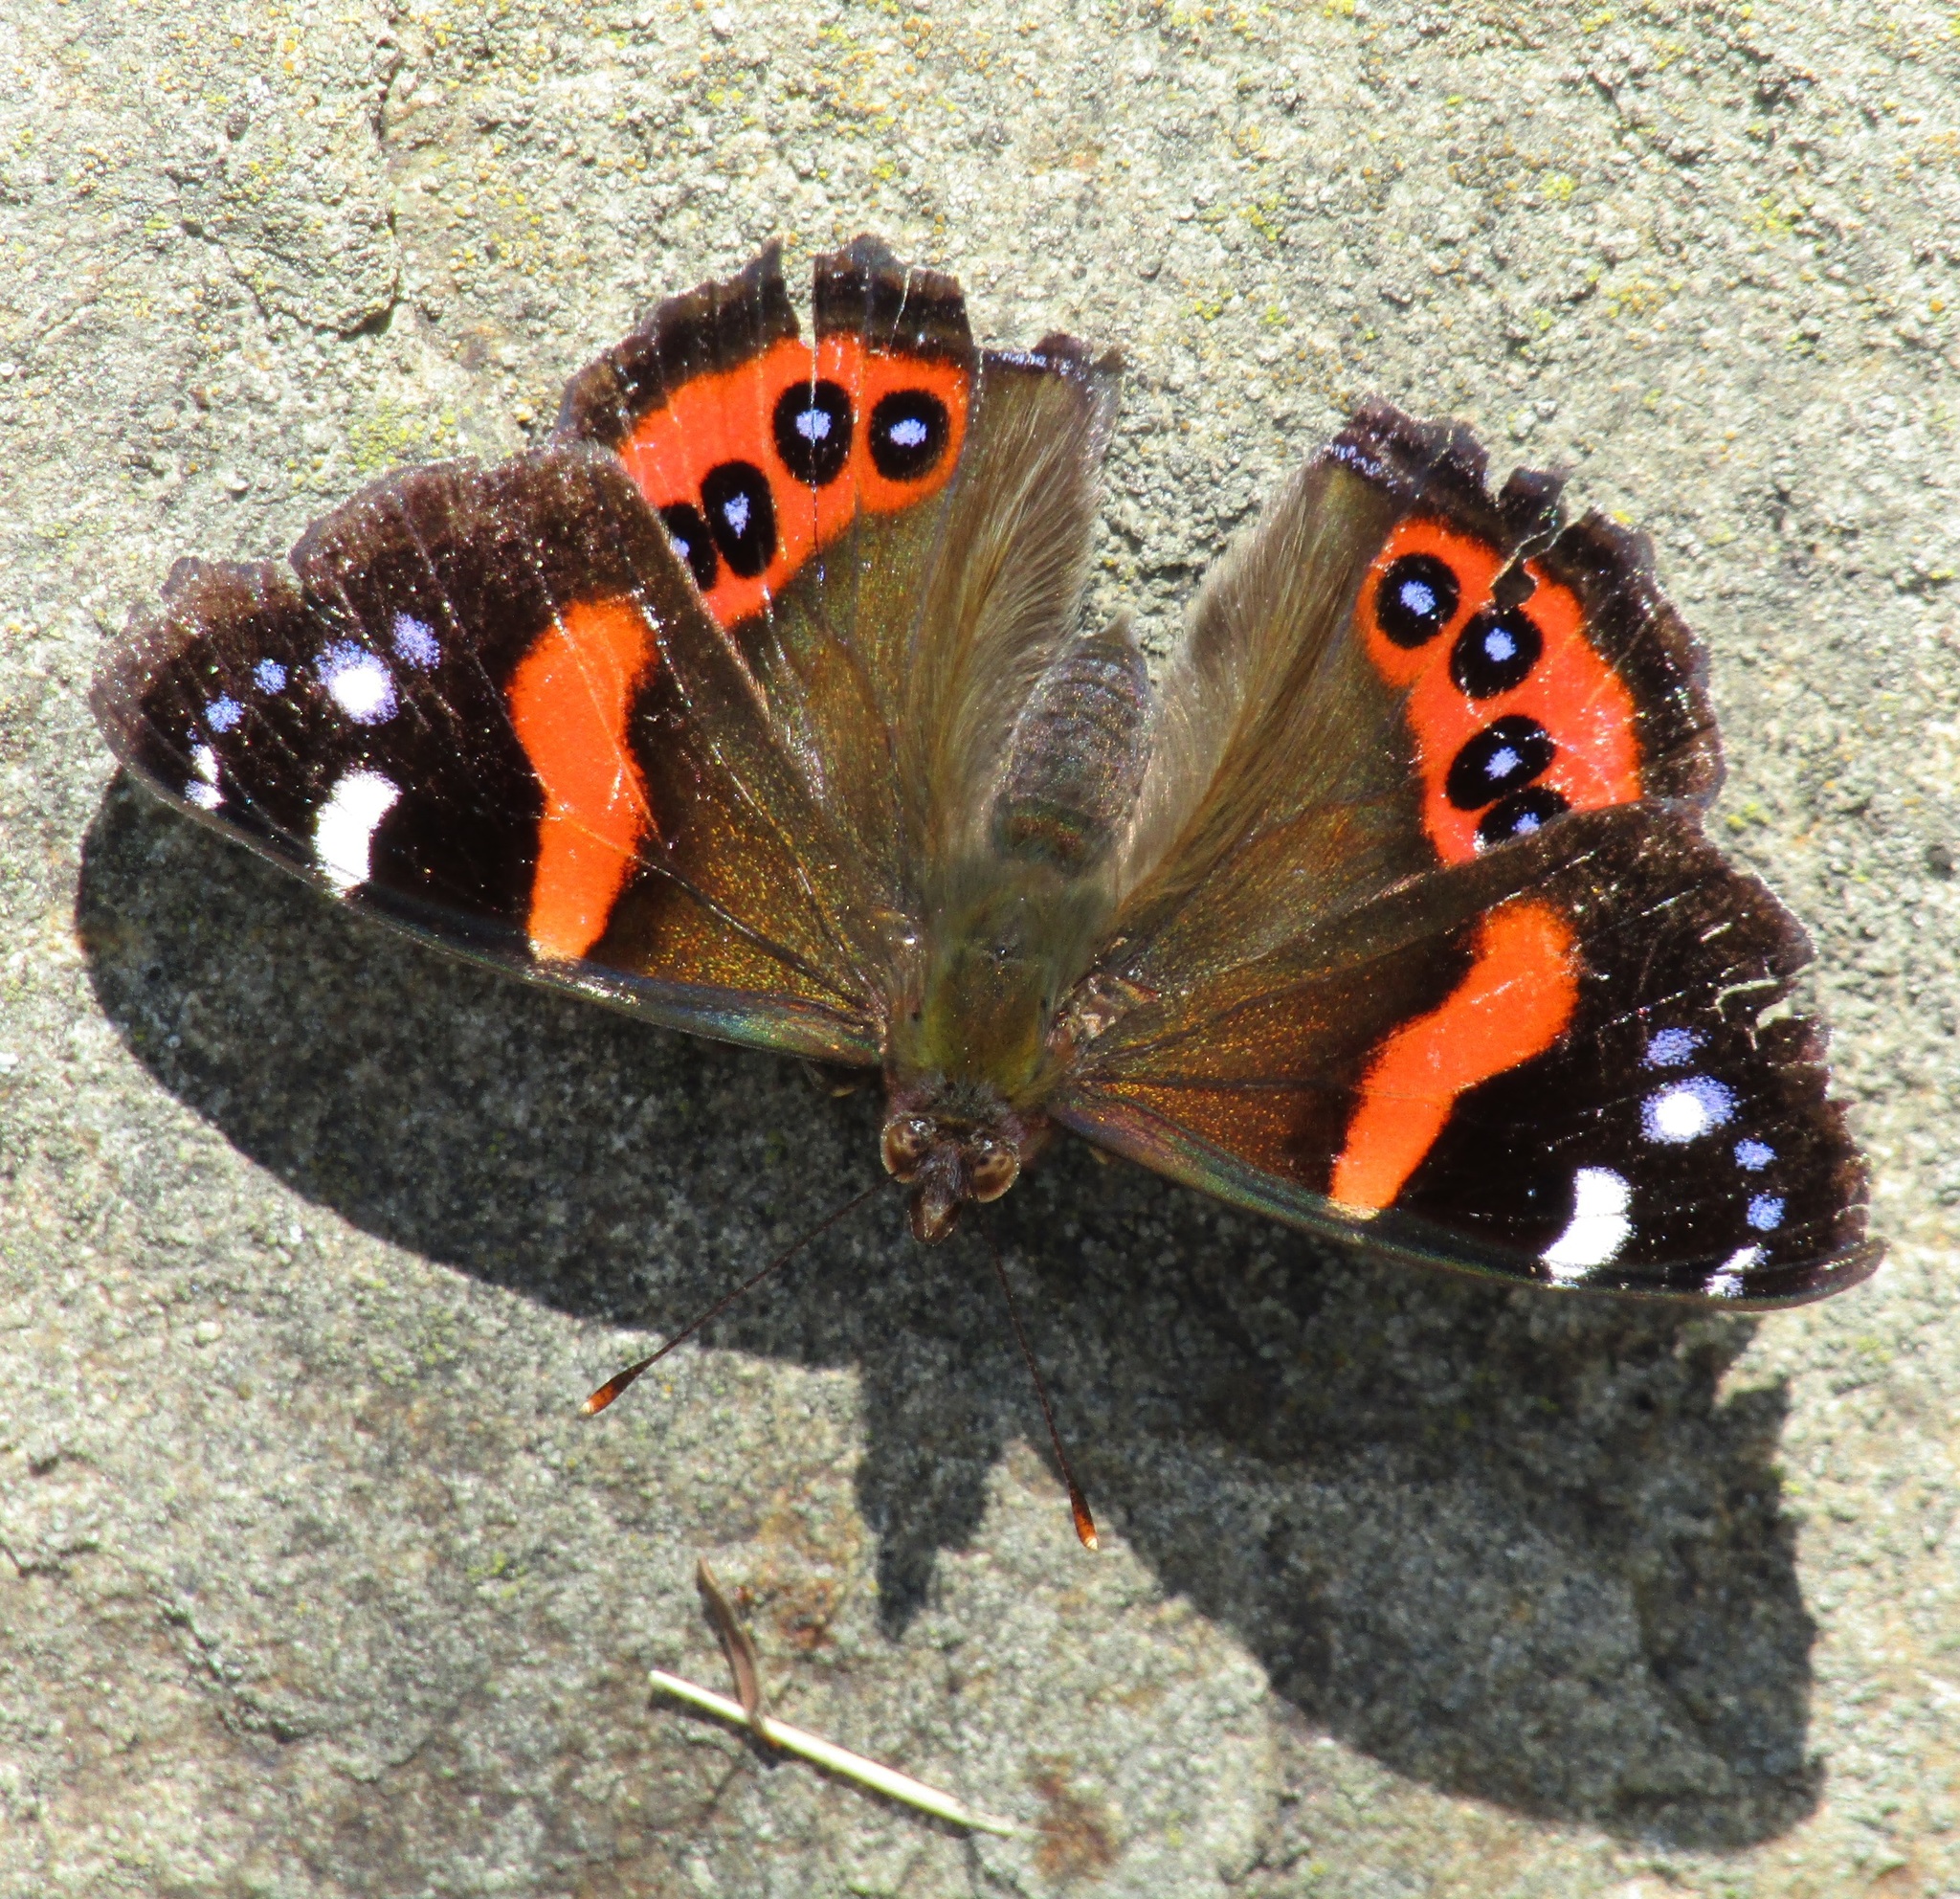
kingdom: Animalia
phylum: Arthropoda
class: Insecta
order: Lepidoptera
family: Nymphalidae
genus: Vanessa
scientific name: Vanessa gonerilla
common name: New zealand red admiral
